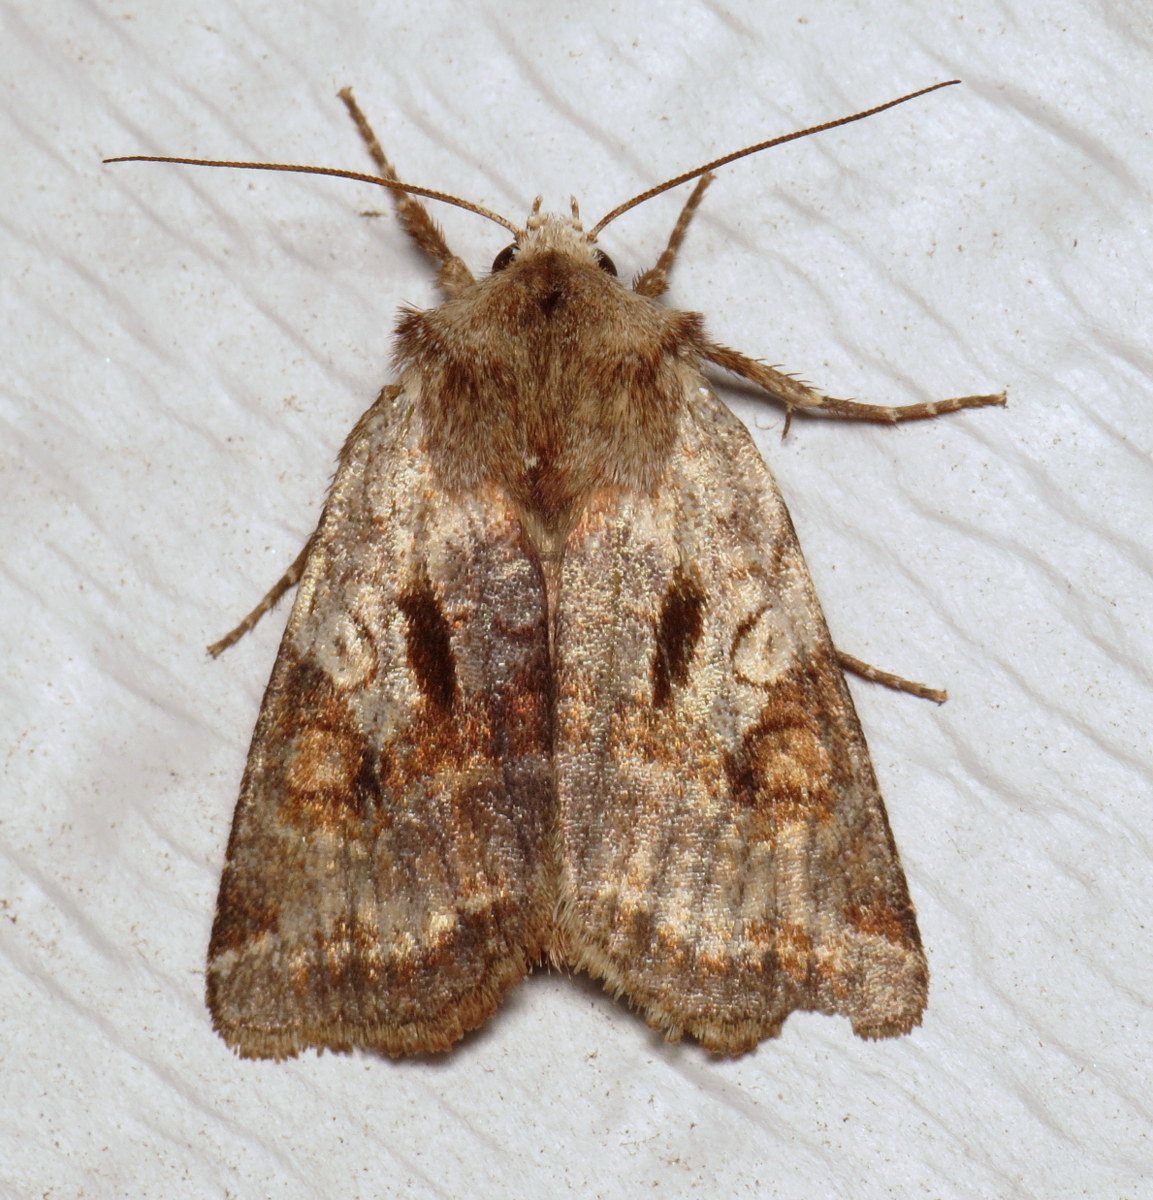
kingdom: Animalia
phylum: Arthropoda
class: Insecta
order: Lepidoptera
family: Noctuidae
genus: Cerastis
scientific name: Cerastis salicarum
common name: Willow dart
